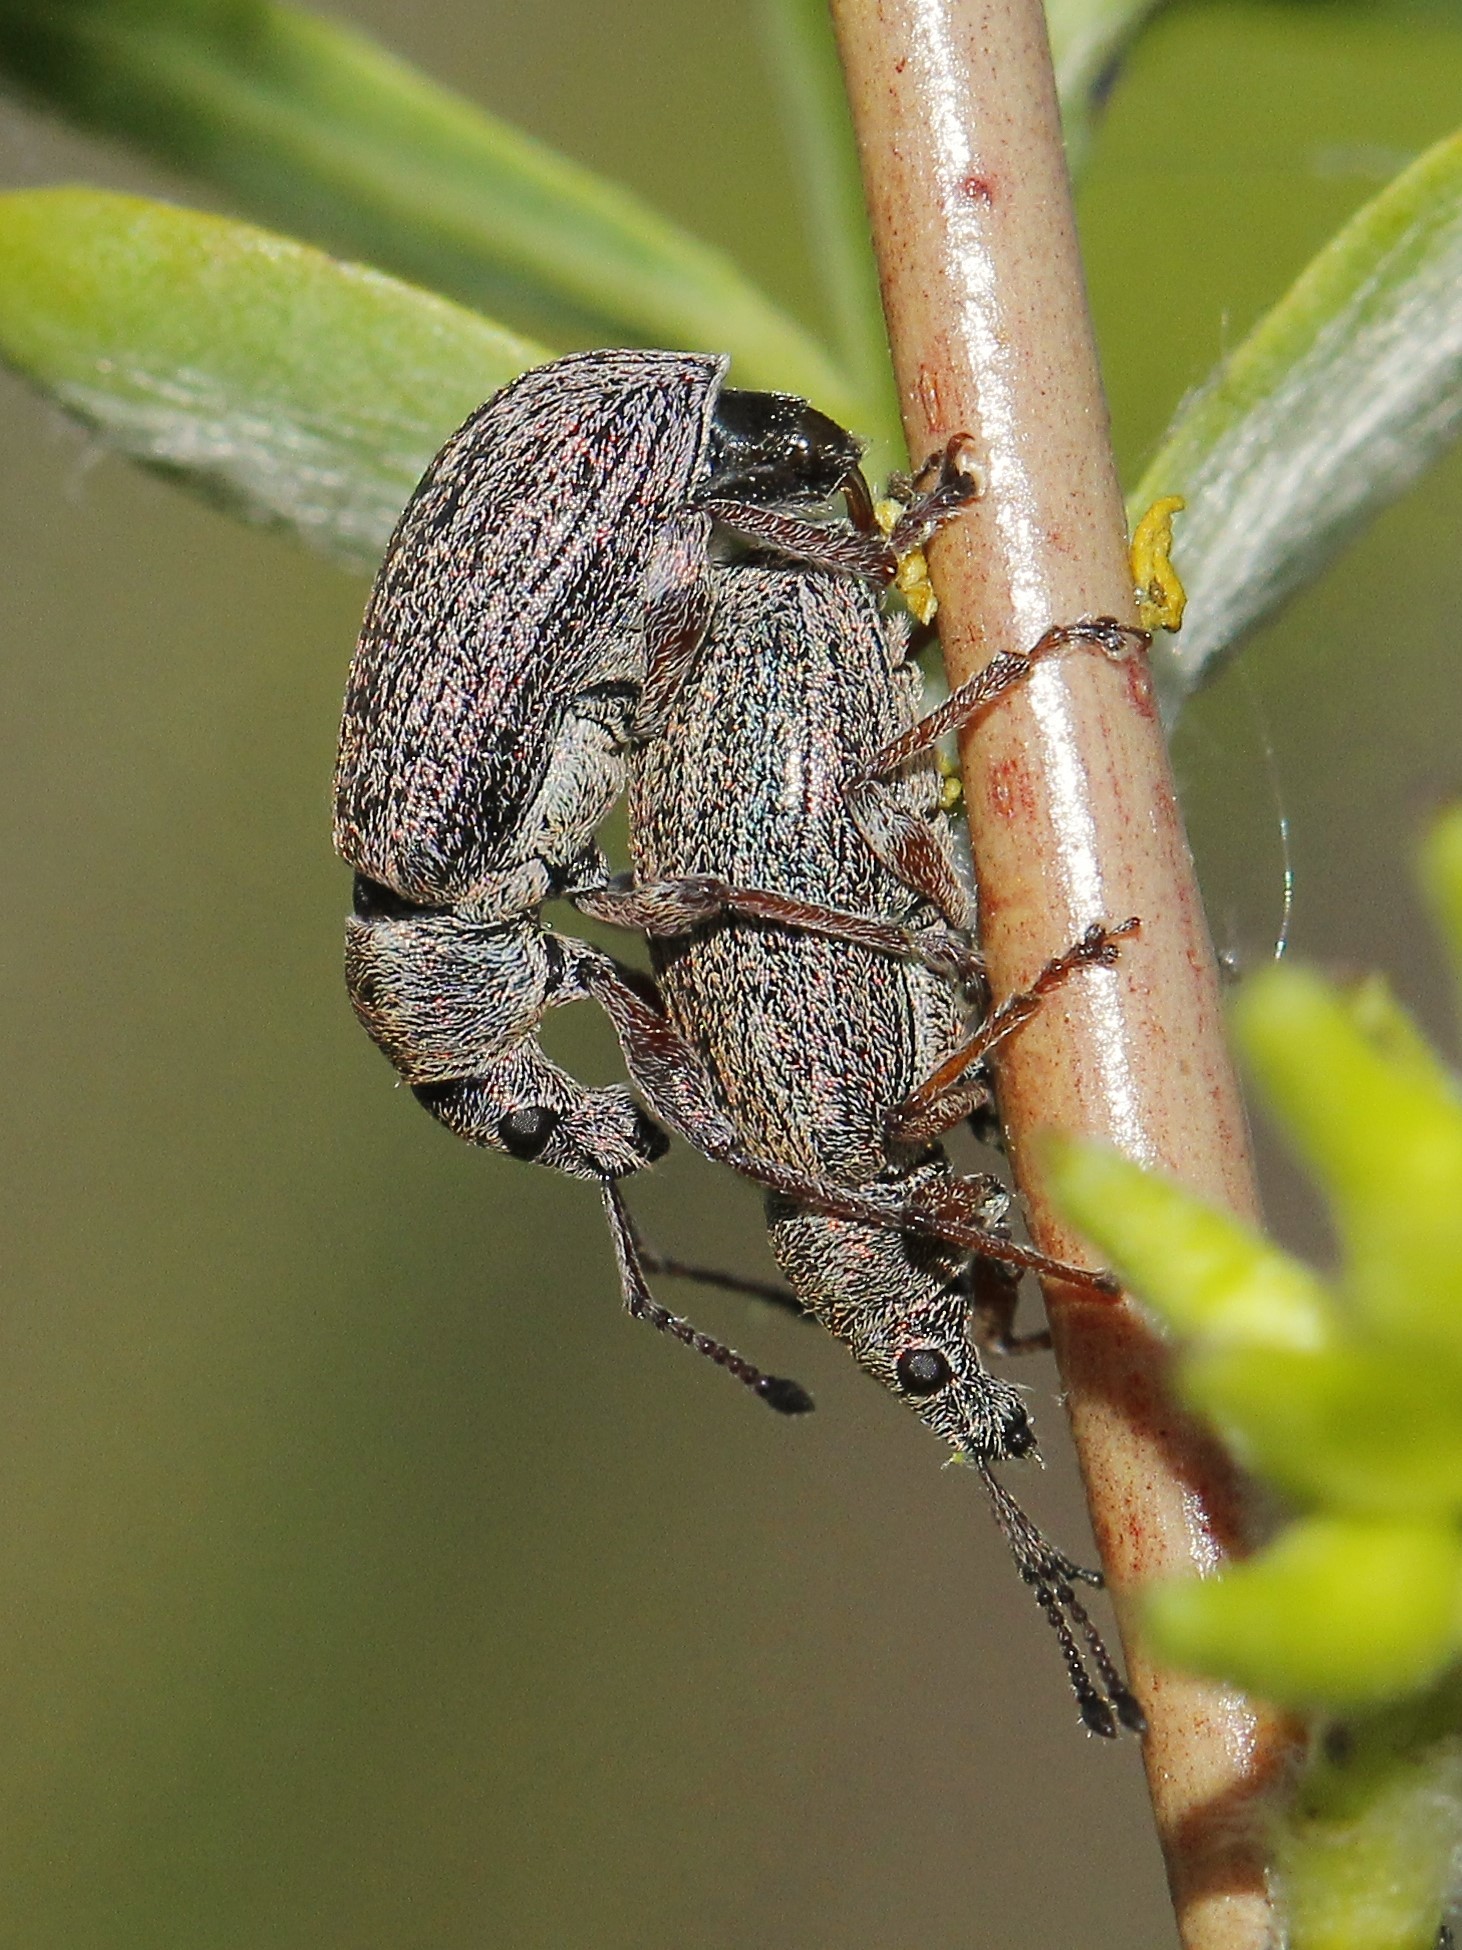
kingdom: Animalia
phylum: Arthropoda
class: Insecta
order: Coleoptera
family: Curculionidae
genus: Phyllobius
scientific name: Phyllobius pyri
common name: Common leaf weevil
